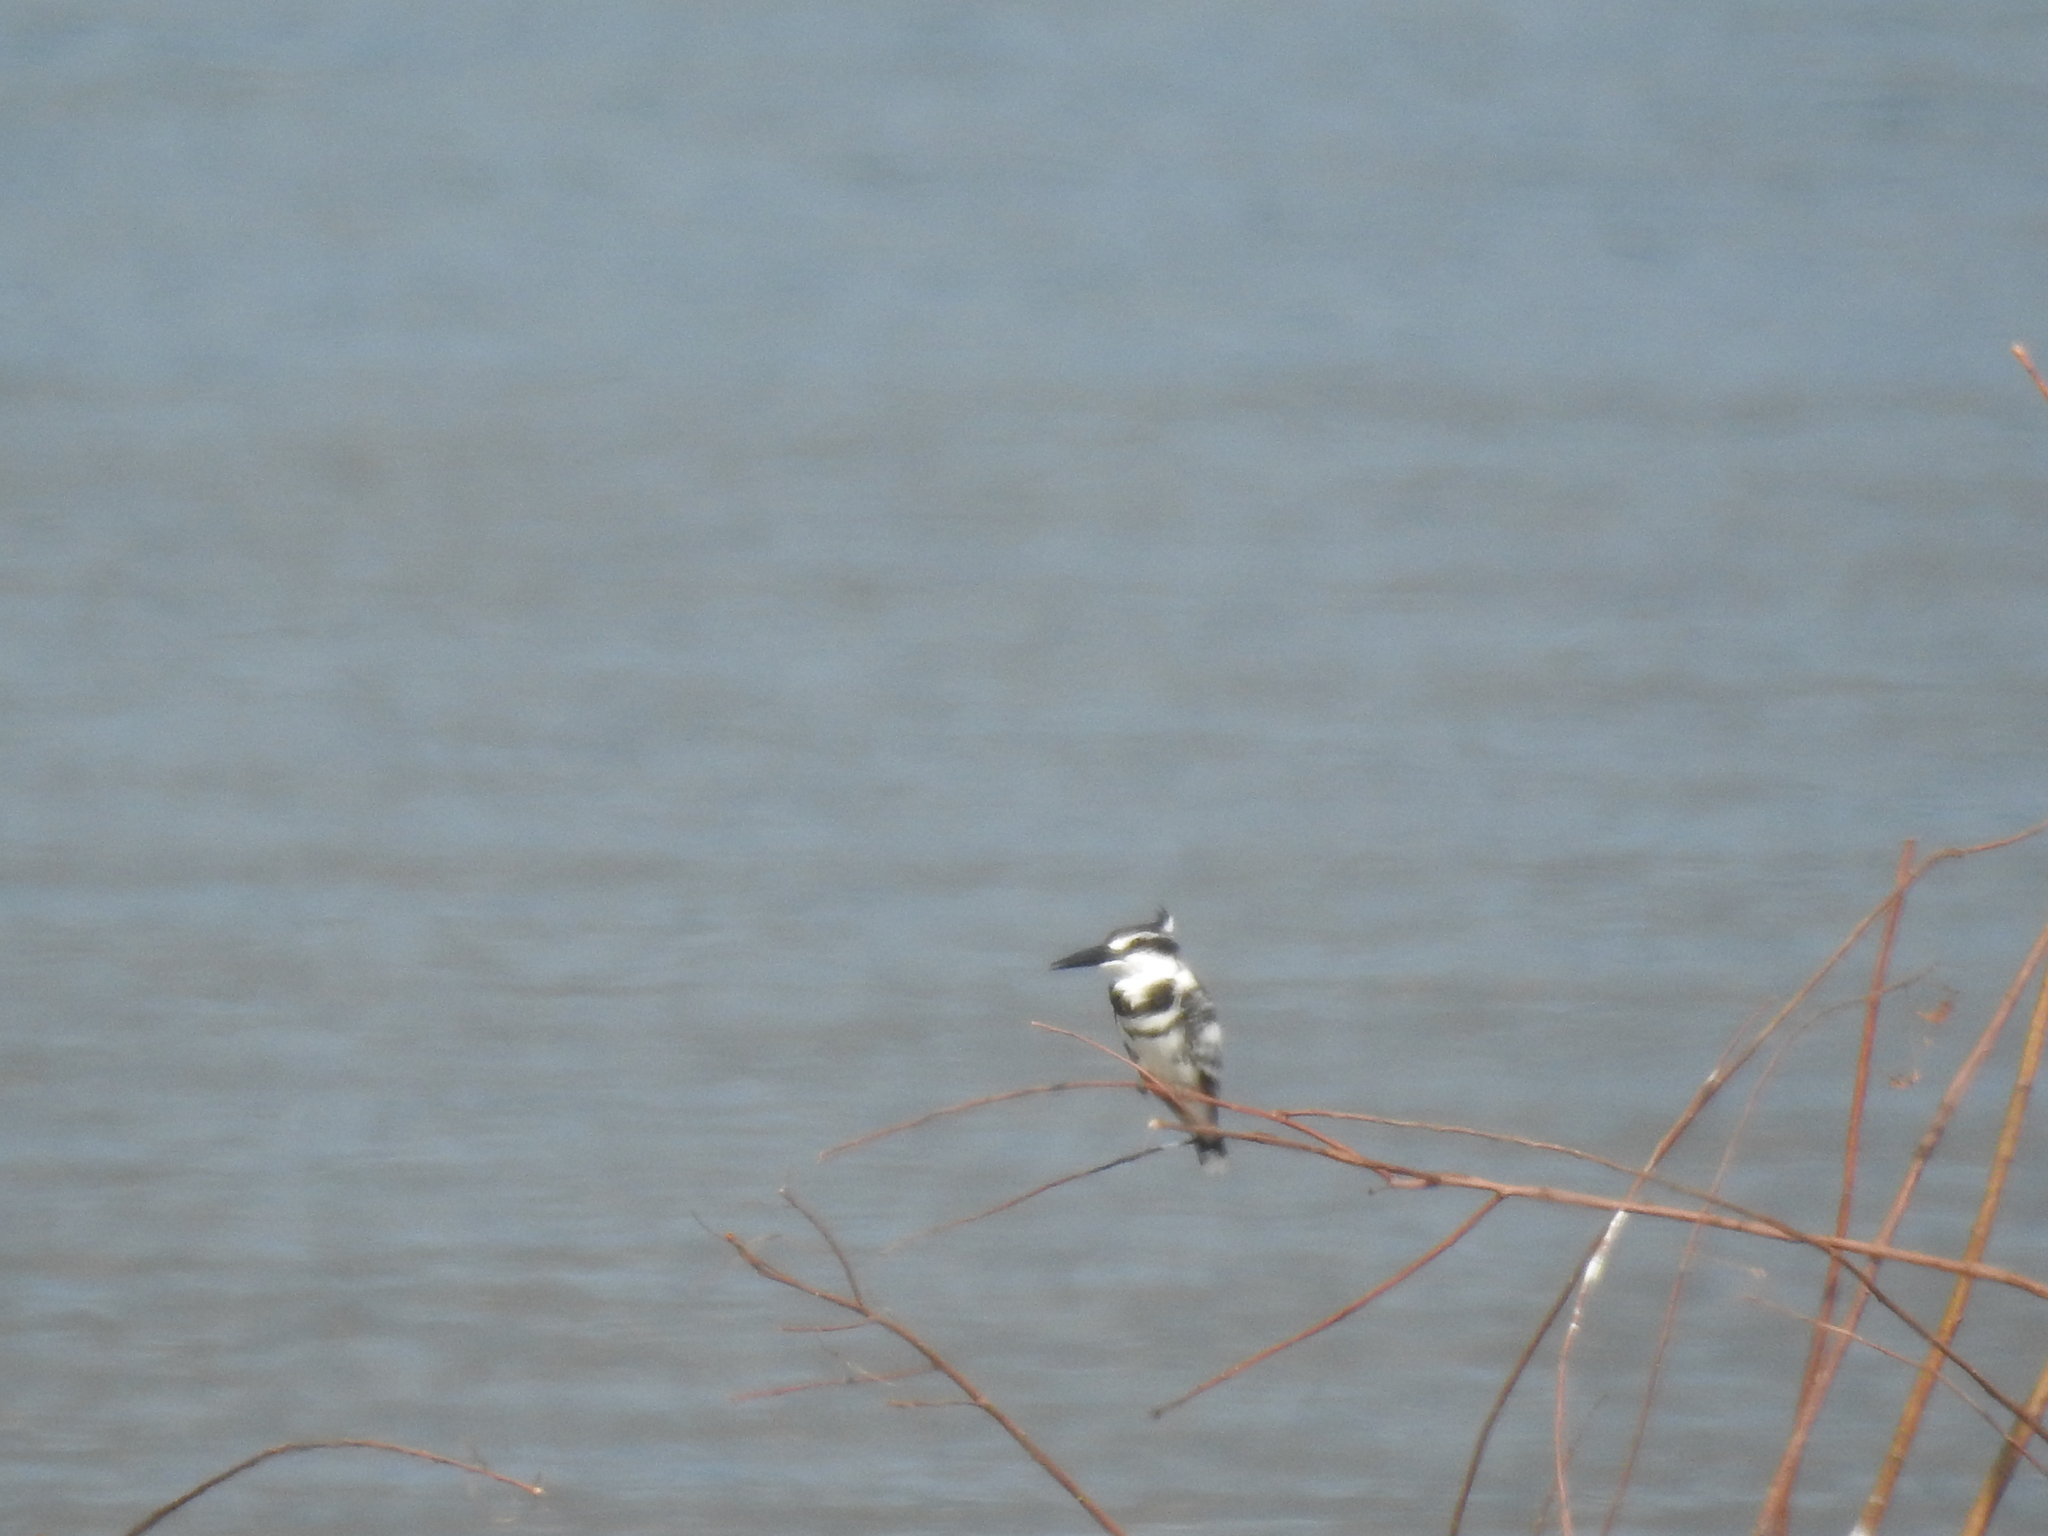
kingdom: Animalia
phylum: Chordata
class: Aves
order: Coraciiformes
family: Alcedinidae
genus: Ceryle
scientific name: Ceryle rudis
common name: Pied kingfisher
